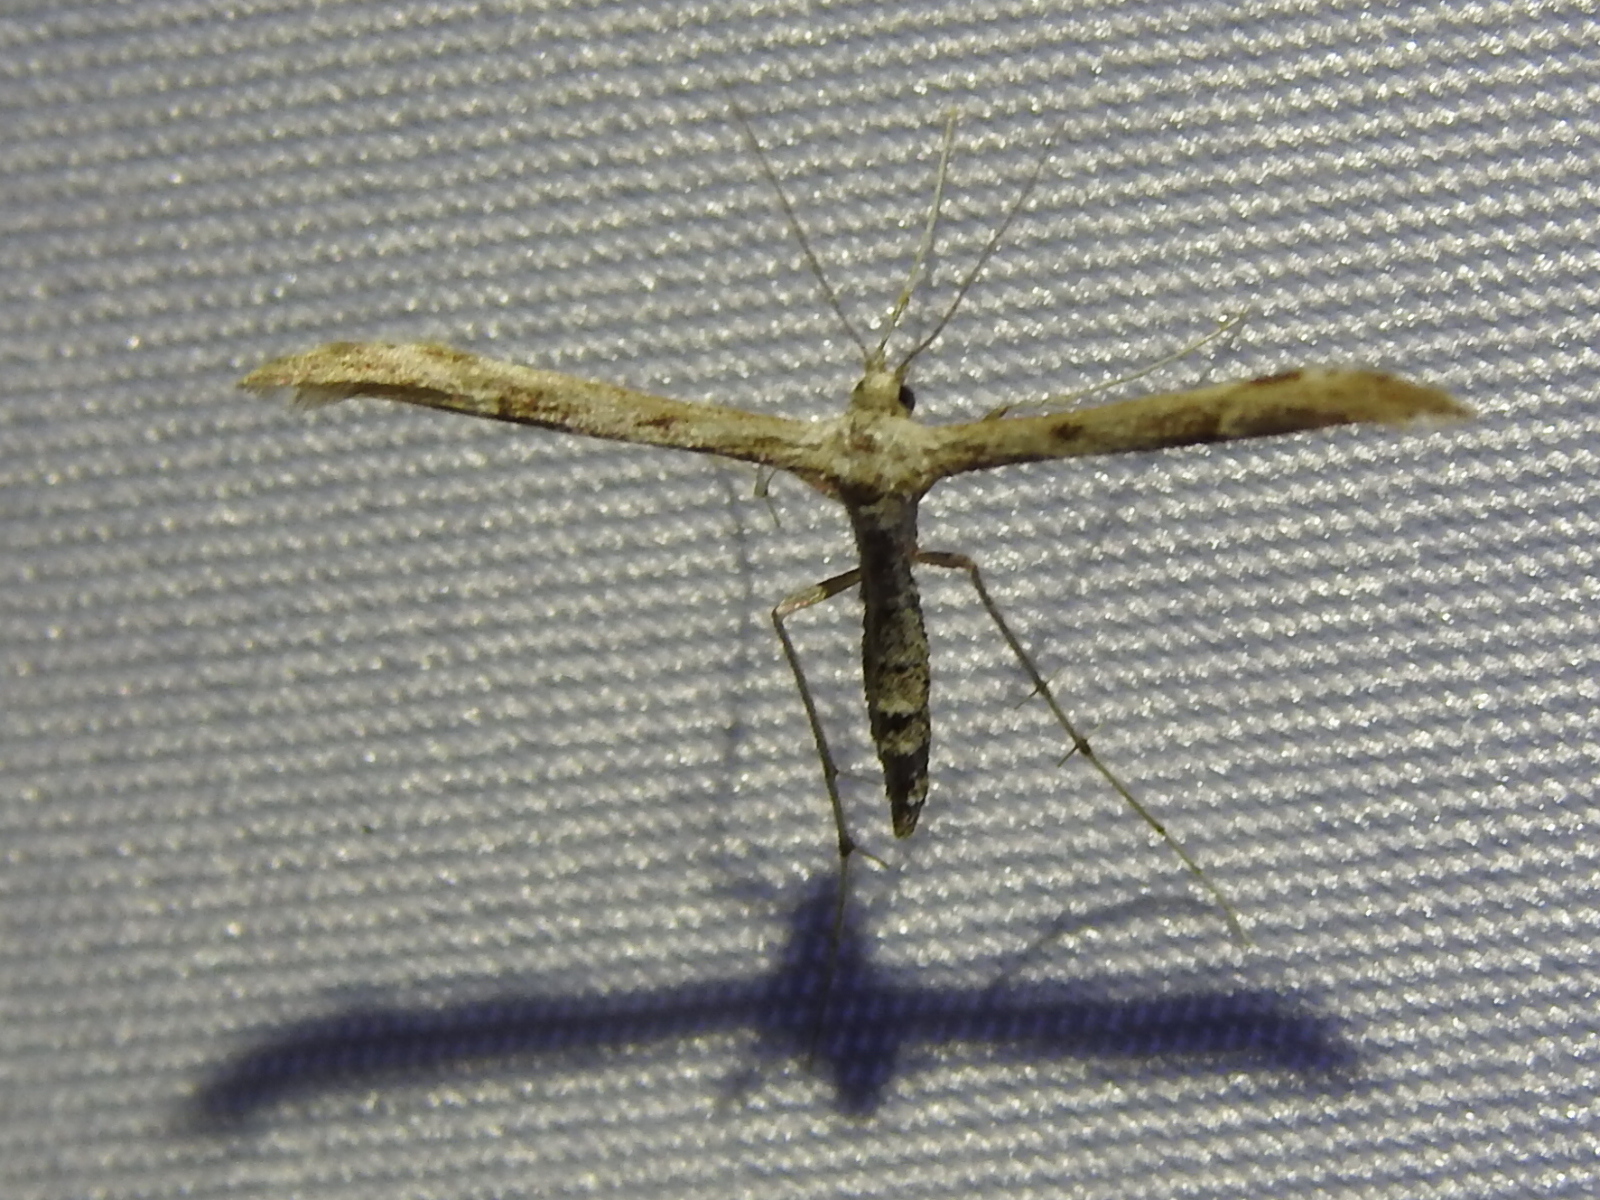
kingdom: Animalia
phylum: Arthropoda
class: Insecta
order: Lepidoptera
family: Pterophoridae
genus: Hellinsia
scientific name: Hellinsia inquinatus
